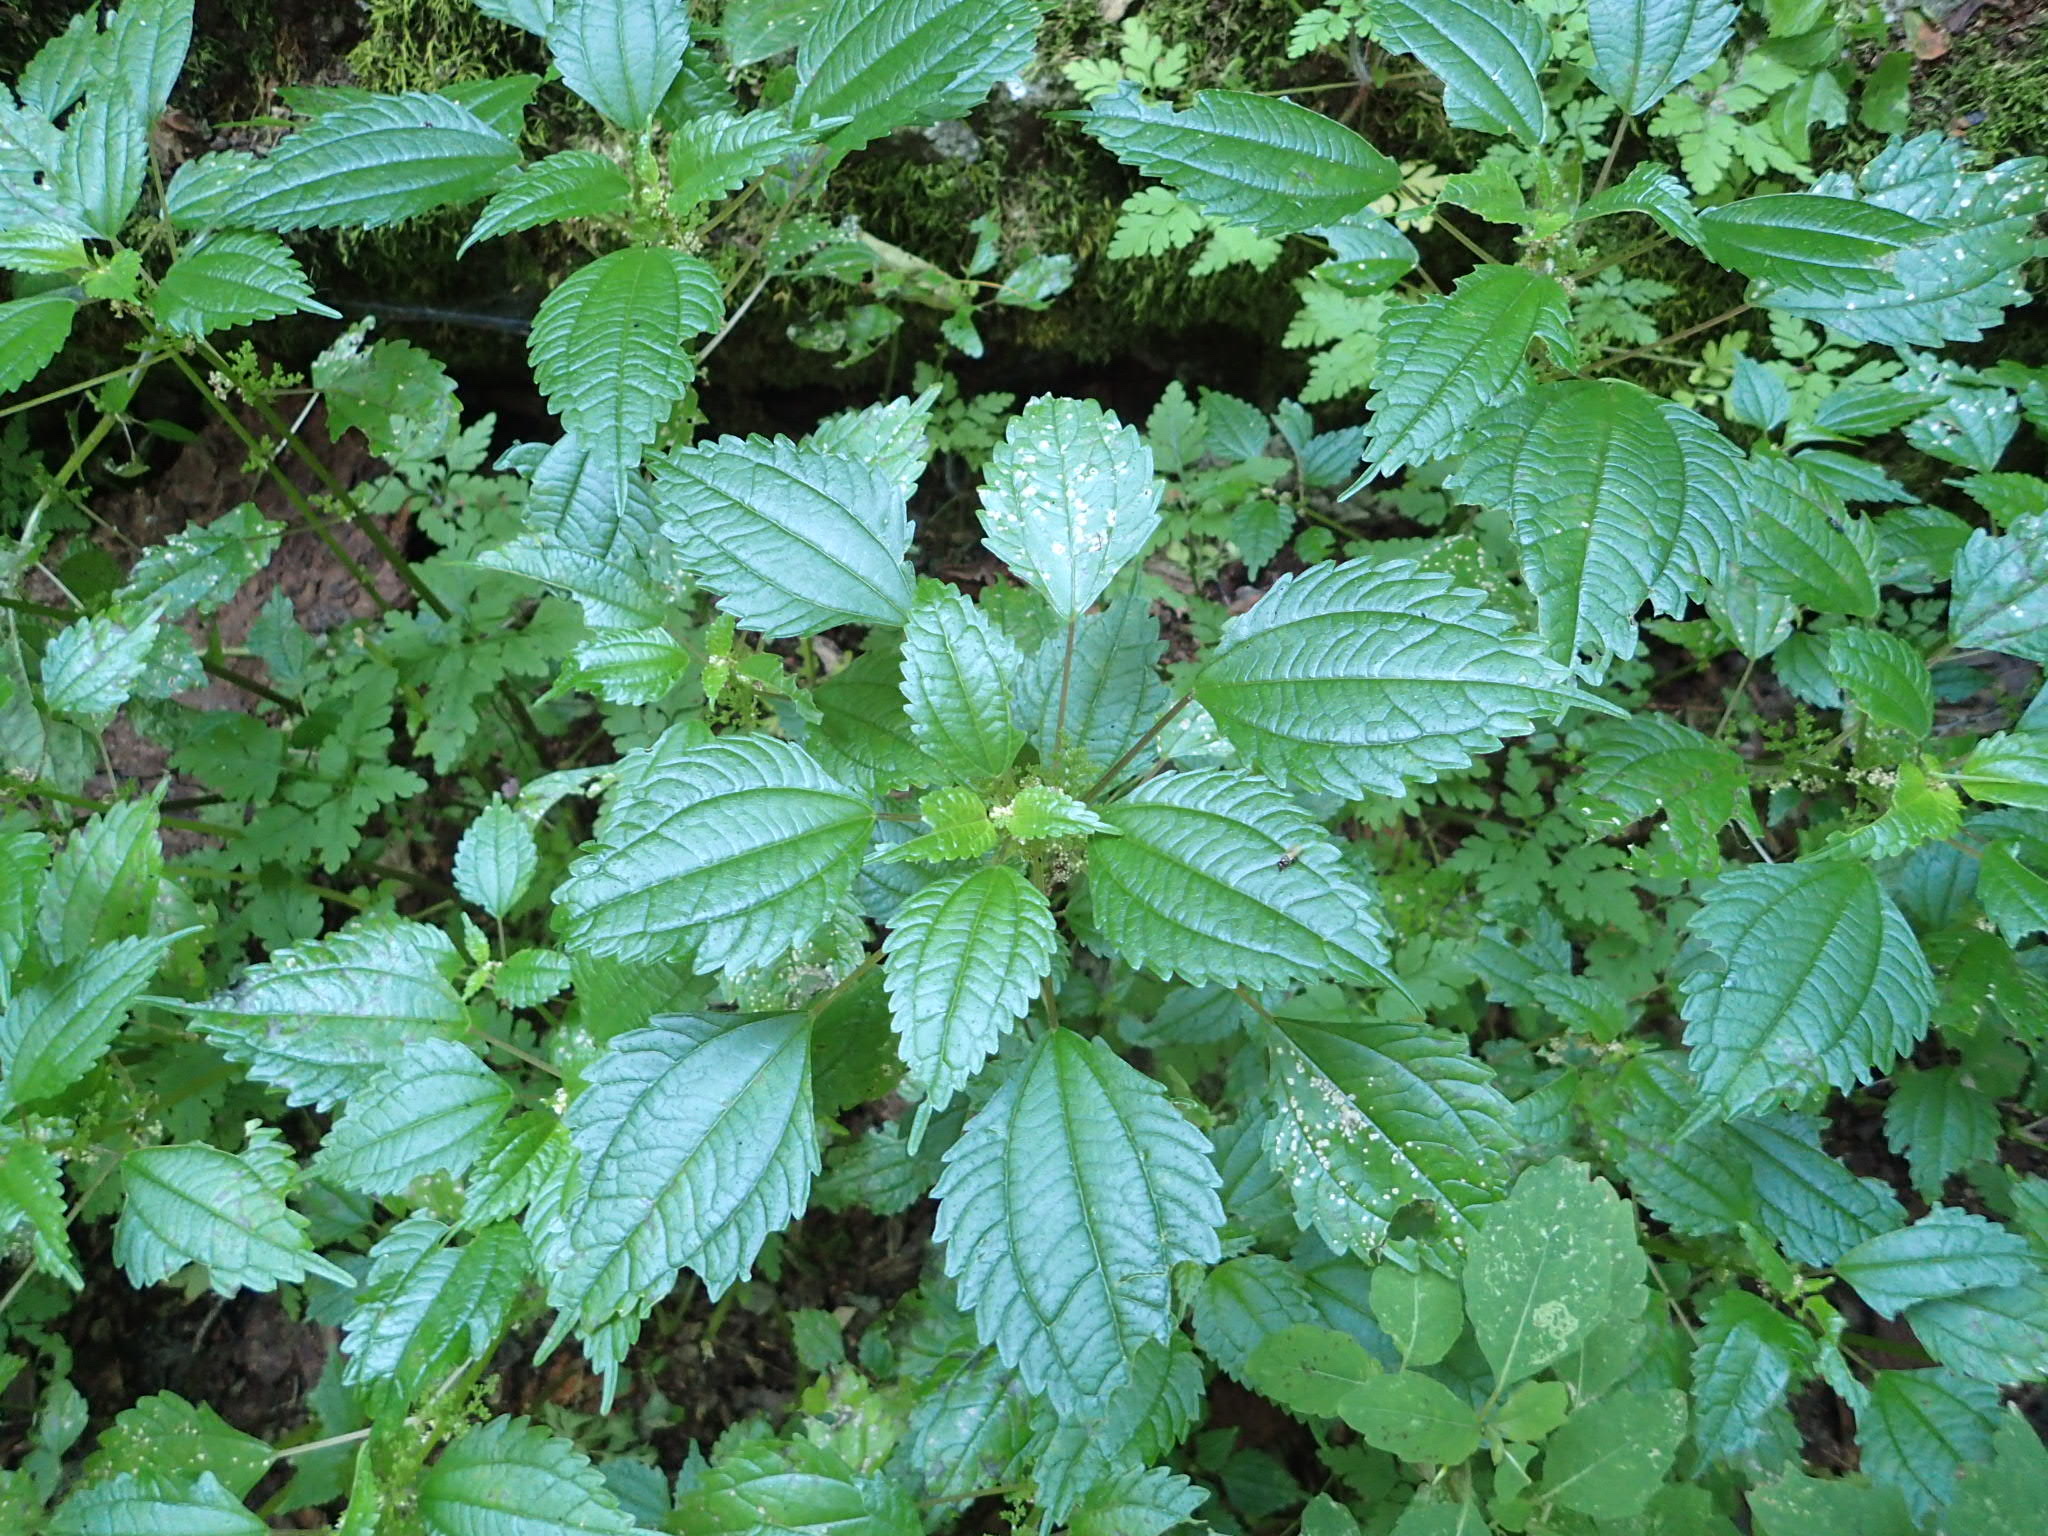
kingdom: Plantae
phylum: Tracheophyta
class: Magnoliopsida
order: Rosales
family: Urticaceae
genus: Pilea
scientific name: Pilea pumila
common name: Clearweed
